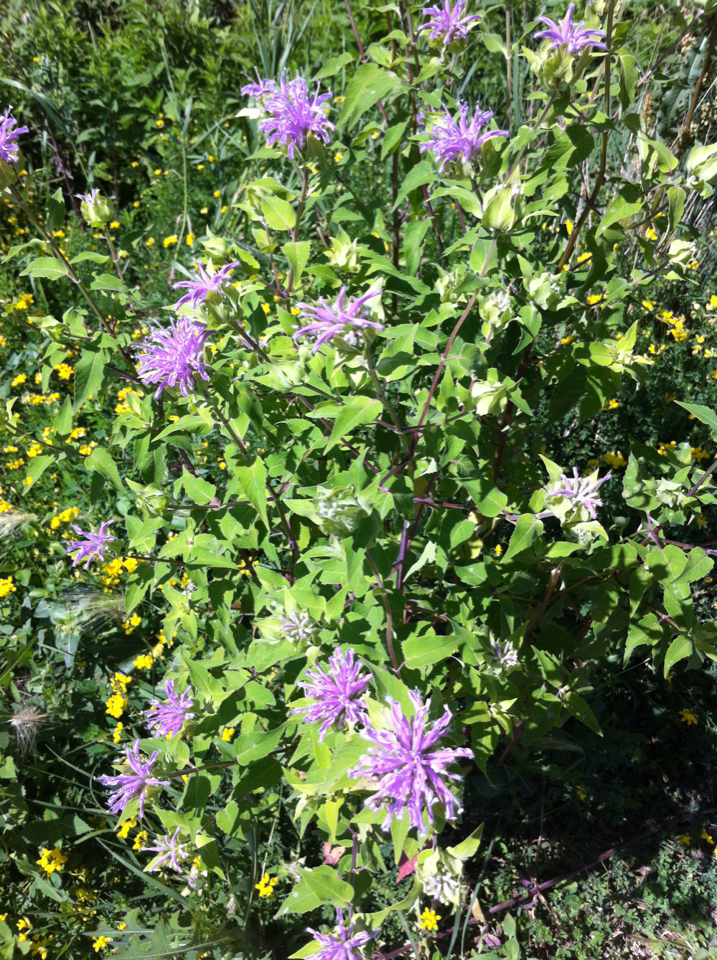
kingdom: Plantae
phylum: Tracheophyta
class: Magnoliopsida
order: Lamiales
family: Lamiaceae
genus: Monarda
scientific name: Monarda fistulosa
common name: Purple beebalm
